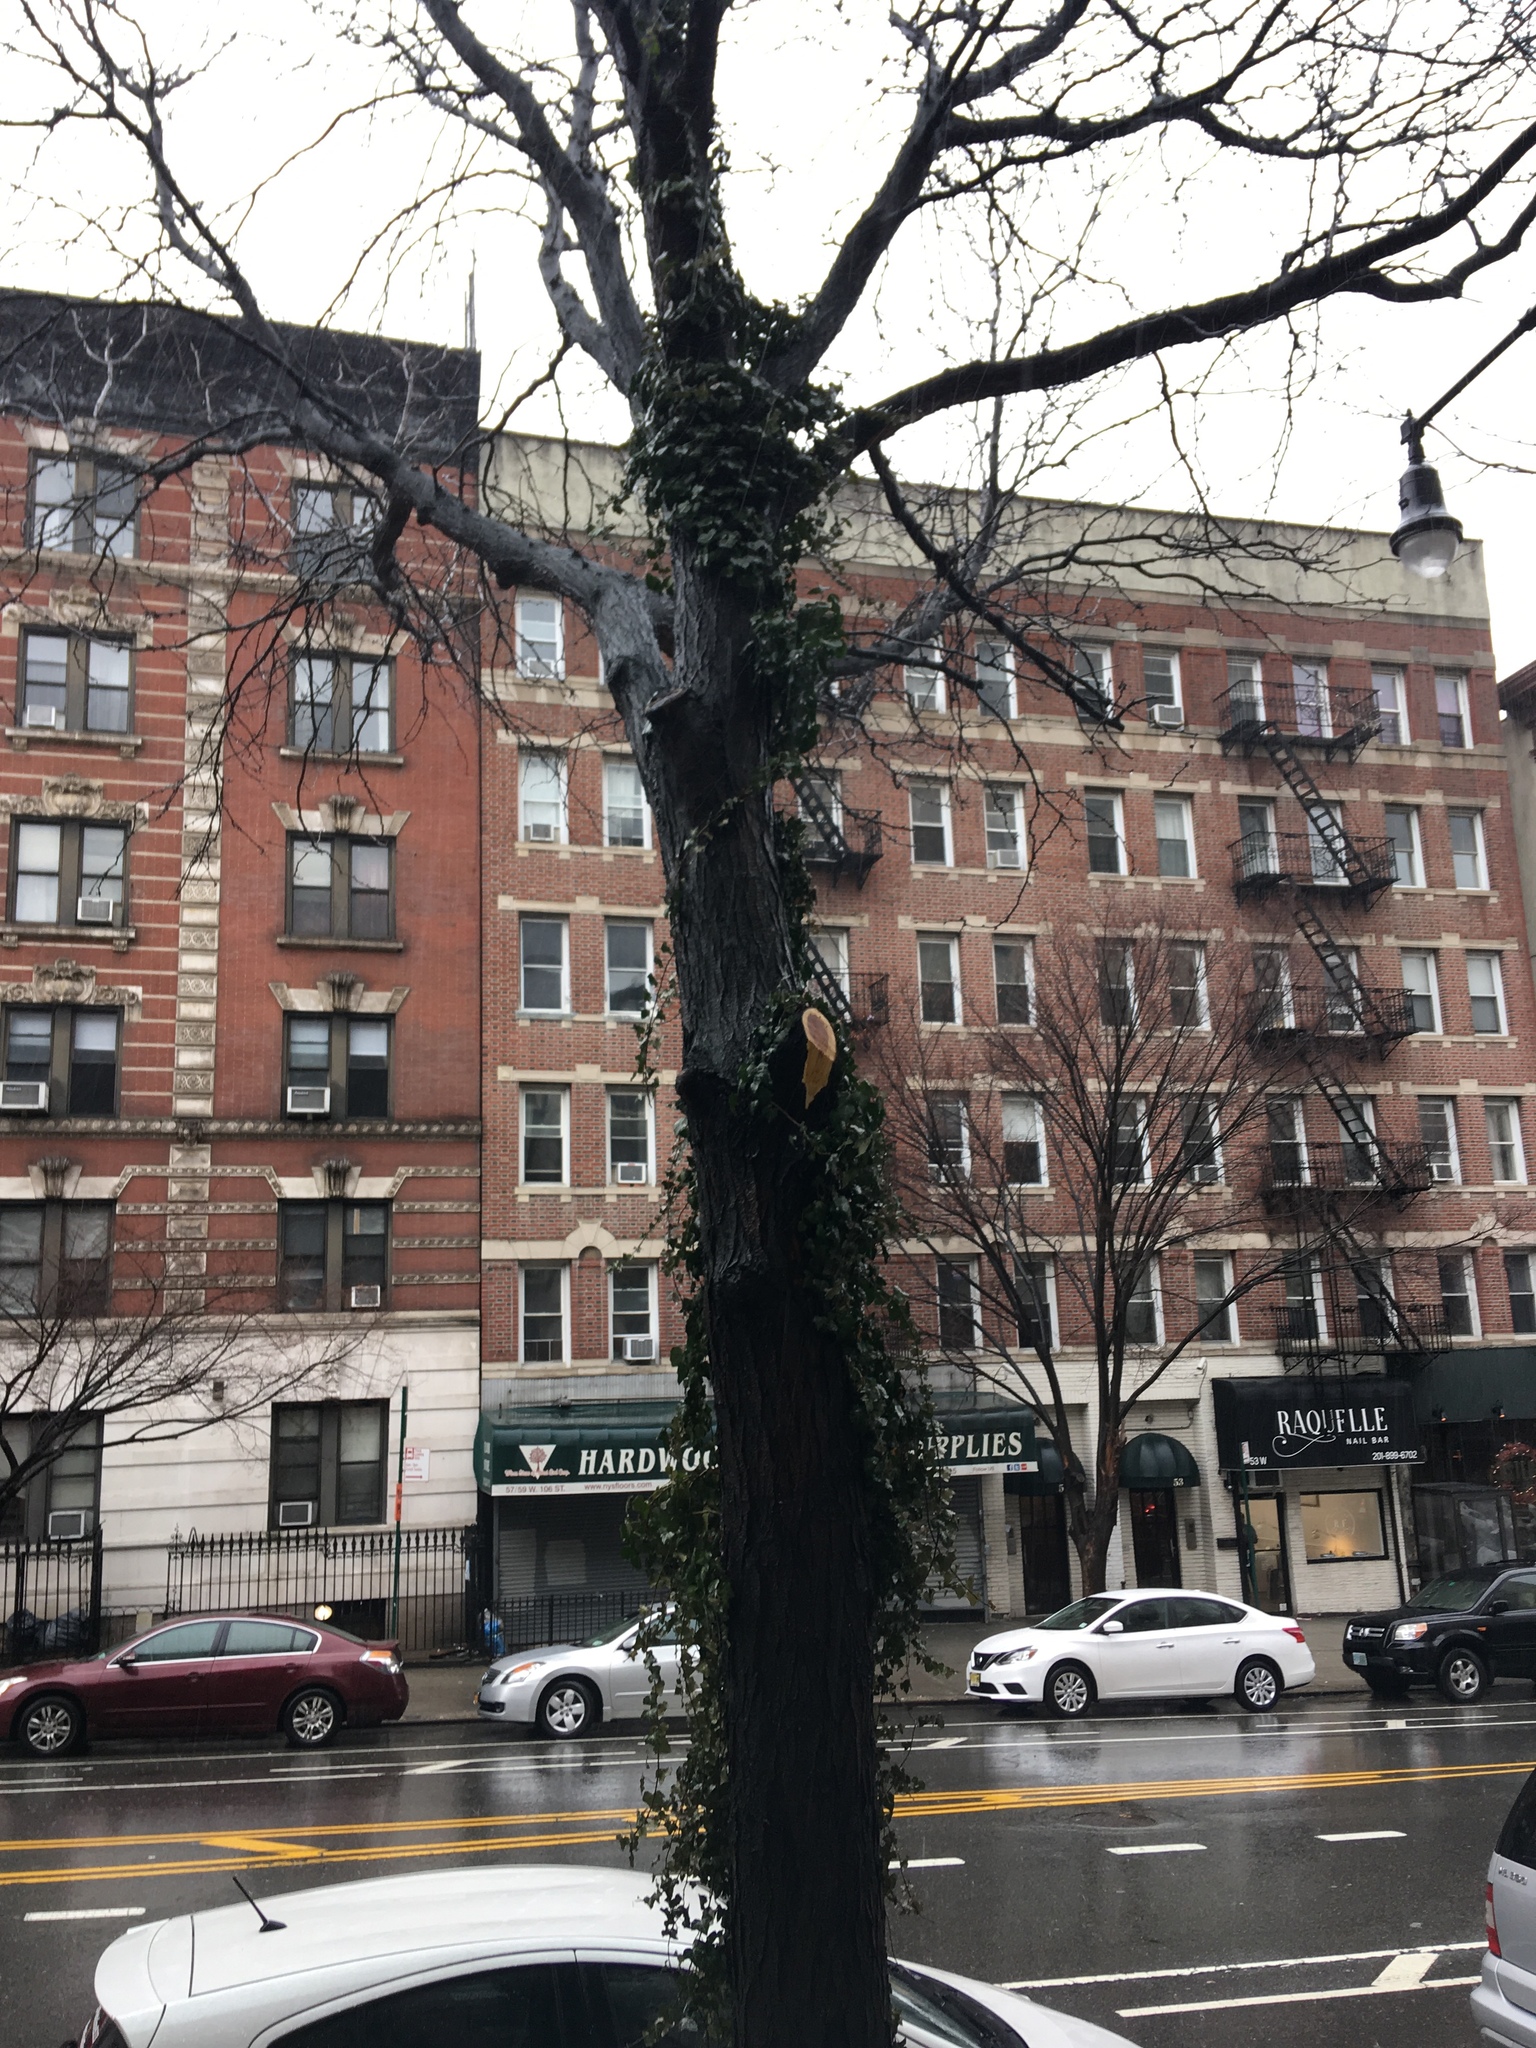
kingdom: Plantae
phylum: Tracheophyta
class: Magnoliopsida
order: Apiales
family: Araliaceae
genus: Hedera
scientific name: Hedera helix
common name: Ivy
